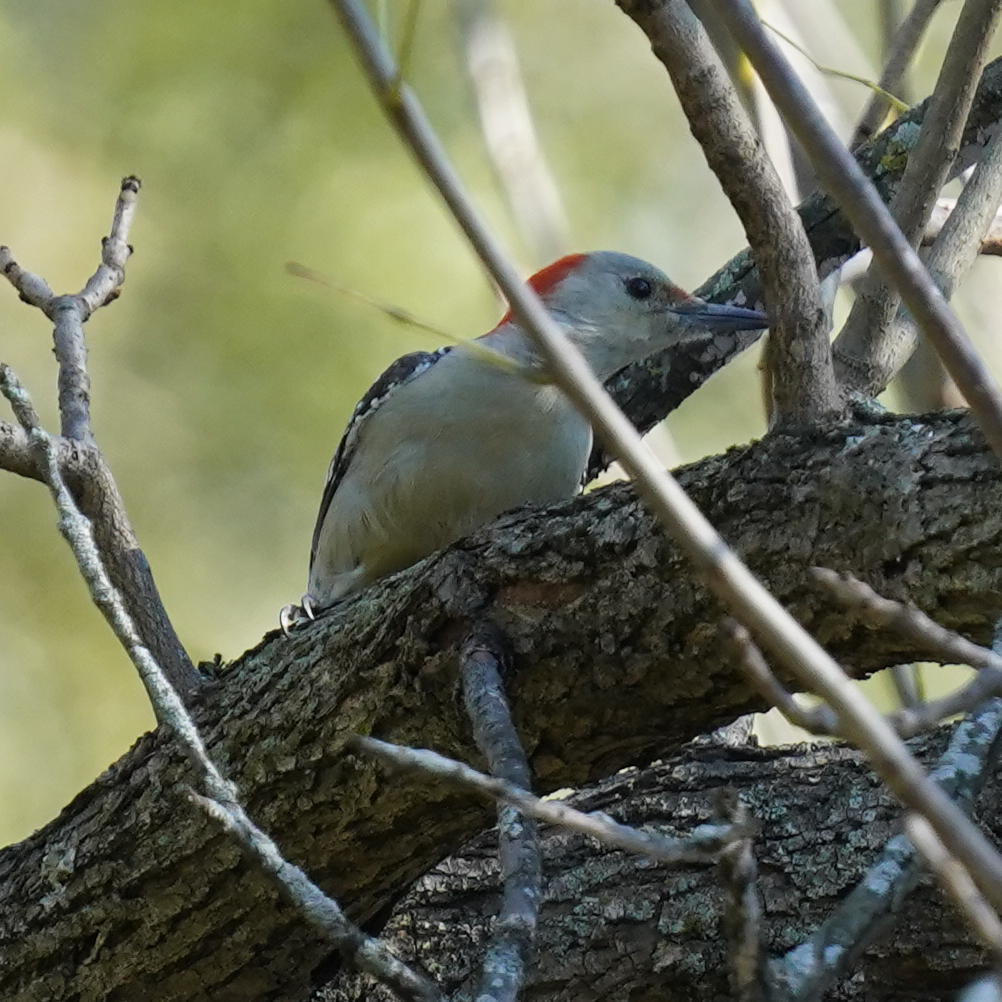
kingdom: Animalia
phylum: Chordata
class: Aves
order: Piciformes
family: Picidae
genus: Melanerpes
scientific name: Melanerpes carolinus
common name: Red-bellied woodpecker
